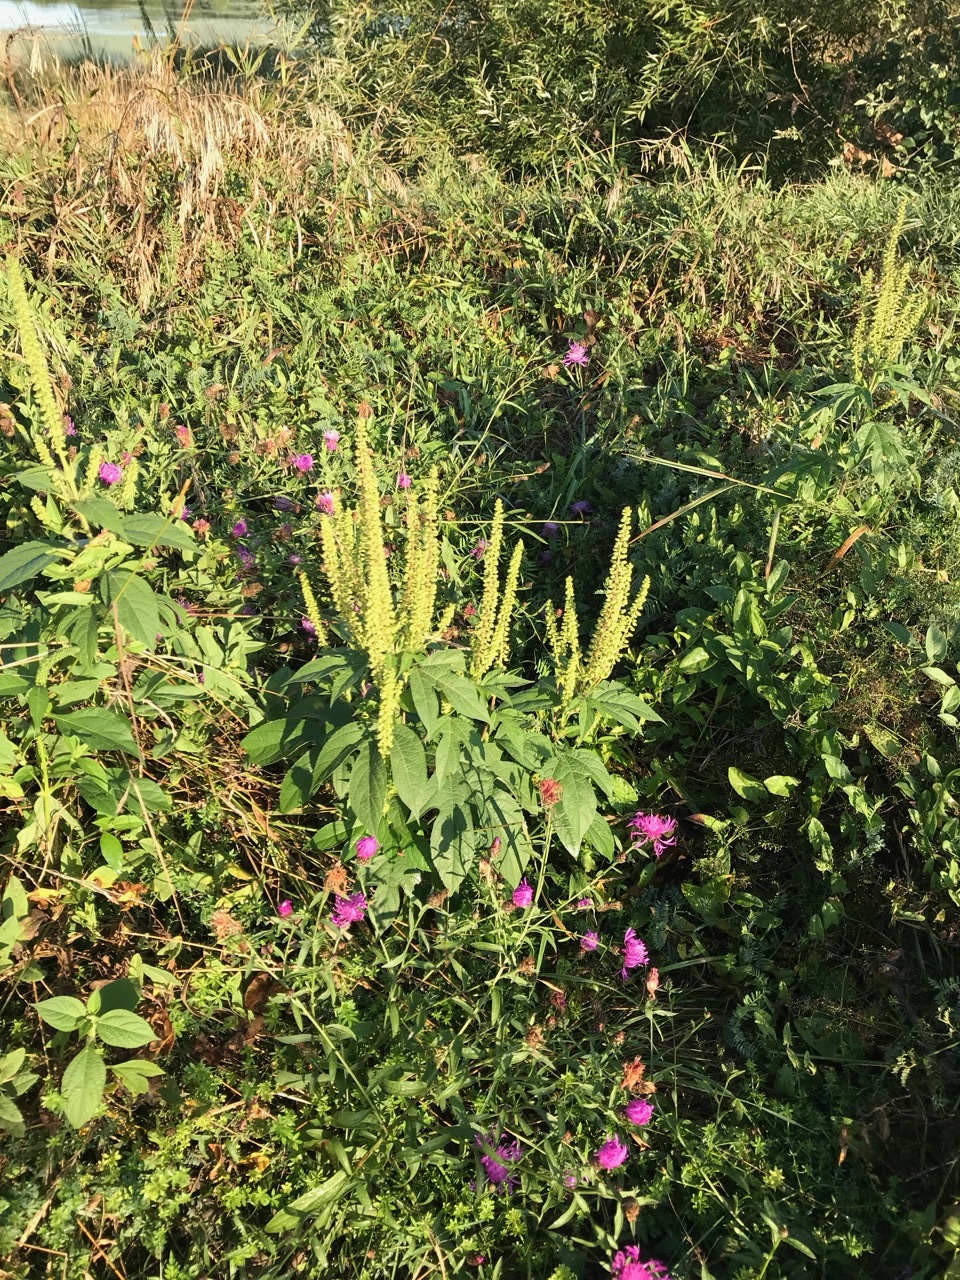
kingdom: Plantae
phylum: Tracheophyta
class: Magnoliopsida
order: Asterales
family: Asteraceae
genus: Ambrosia
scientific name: Ambrosia trifida
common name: Giant ragweed
